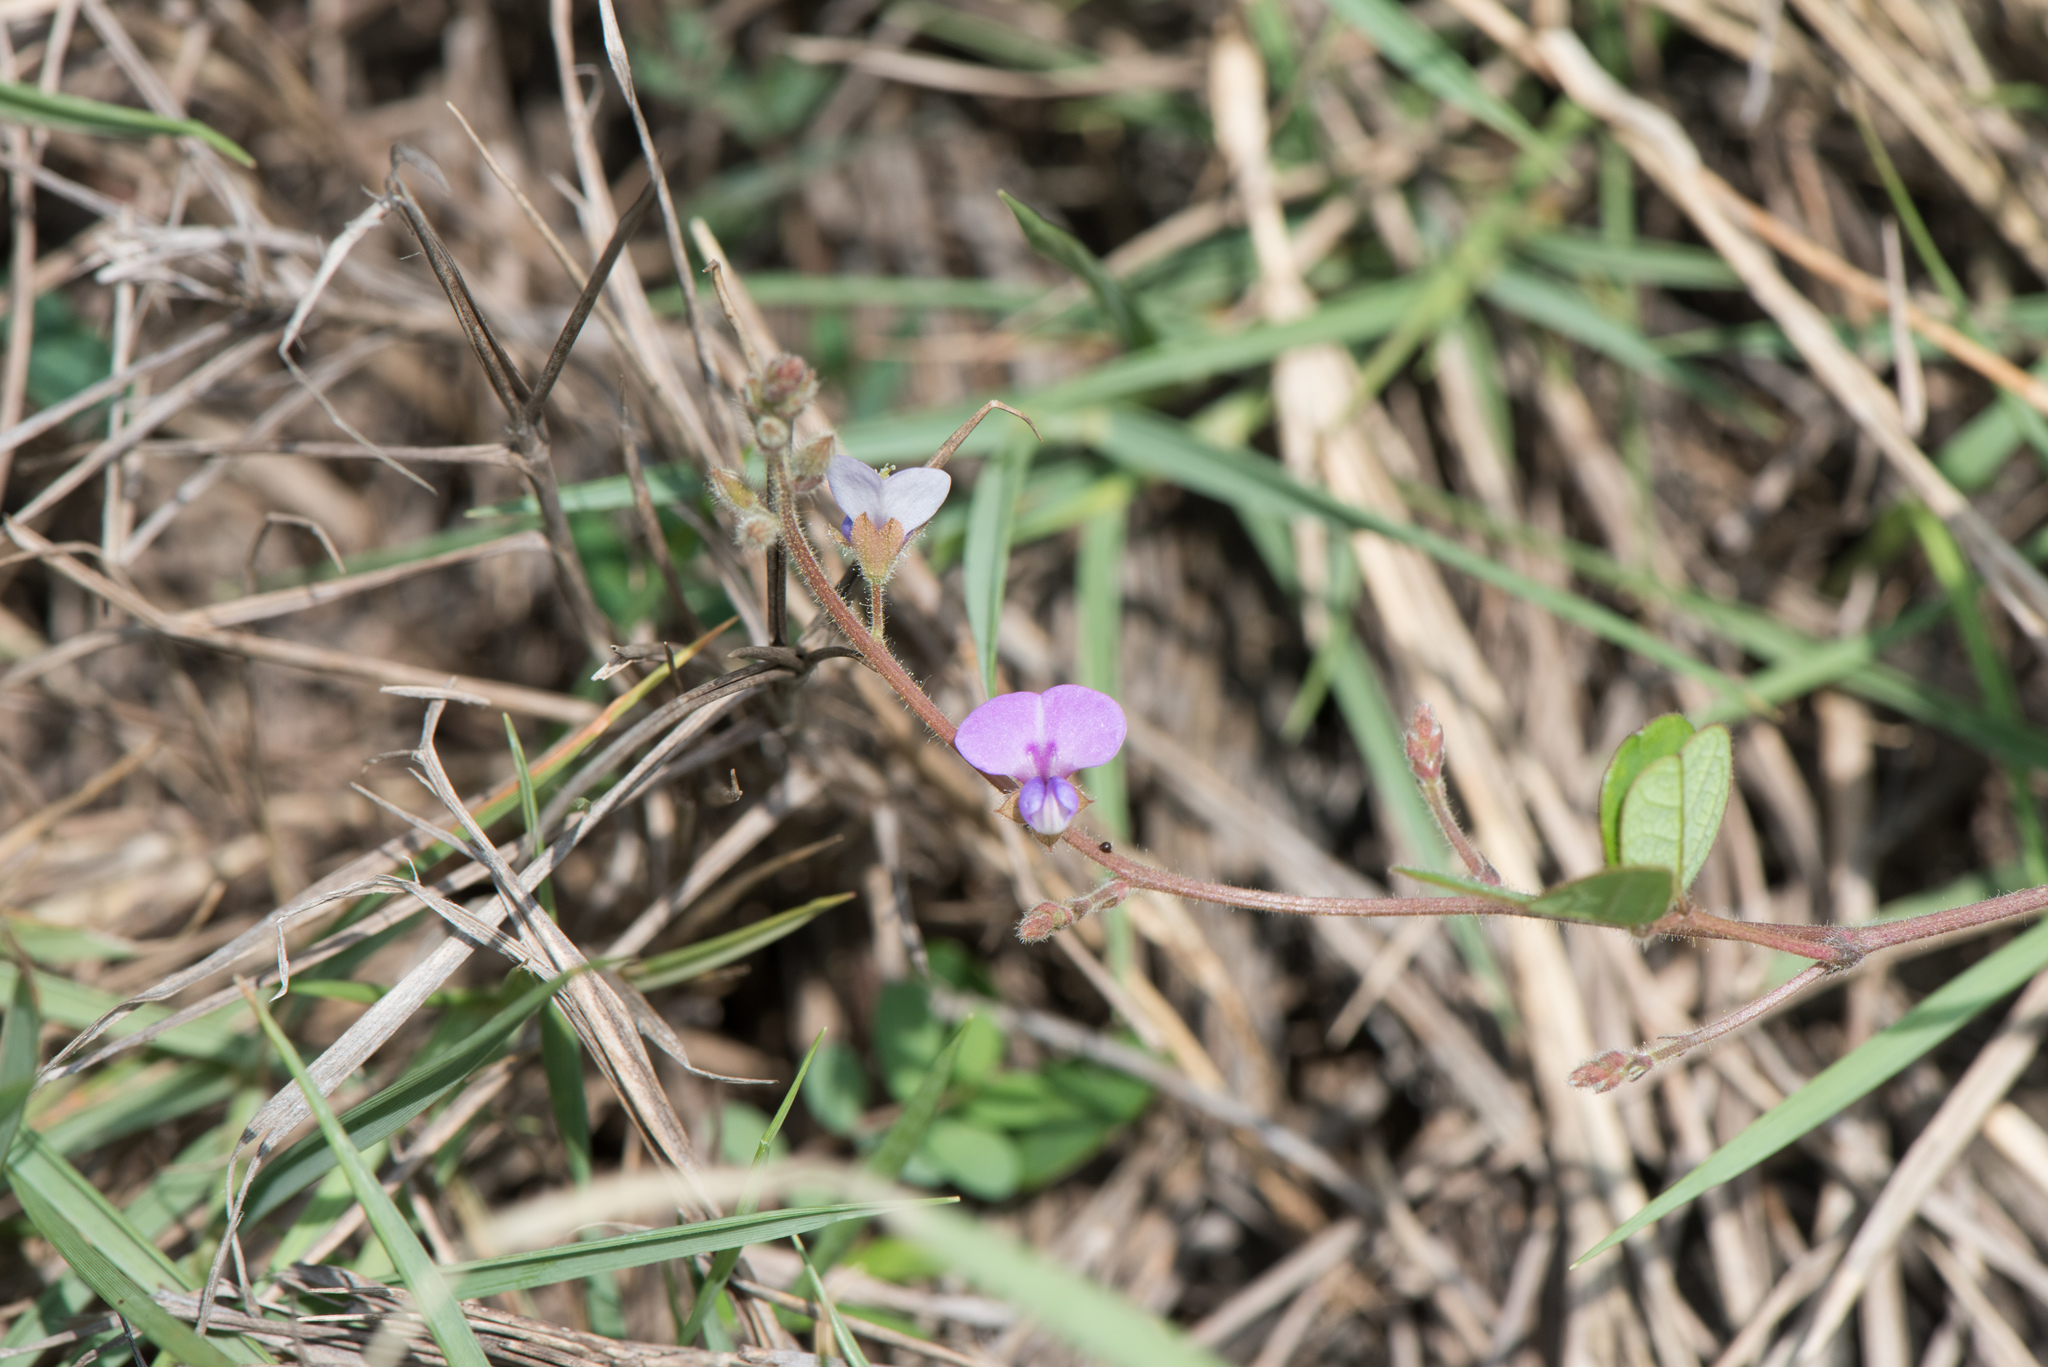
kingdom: Plantae
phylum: Tracheophyta
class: Magnoliopsida
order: Fabales
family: Fabaceae
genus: Christia
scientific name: Christia obcordata
